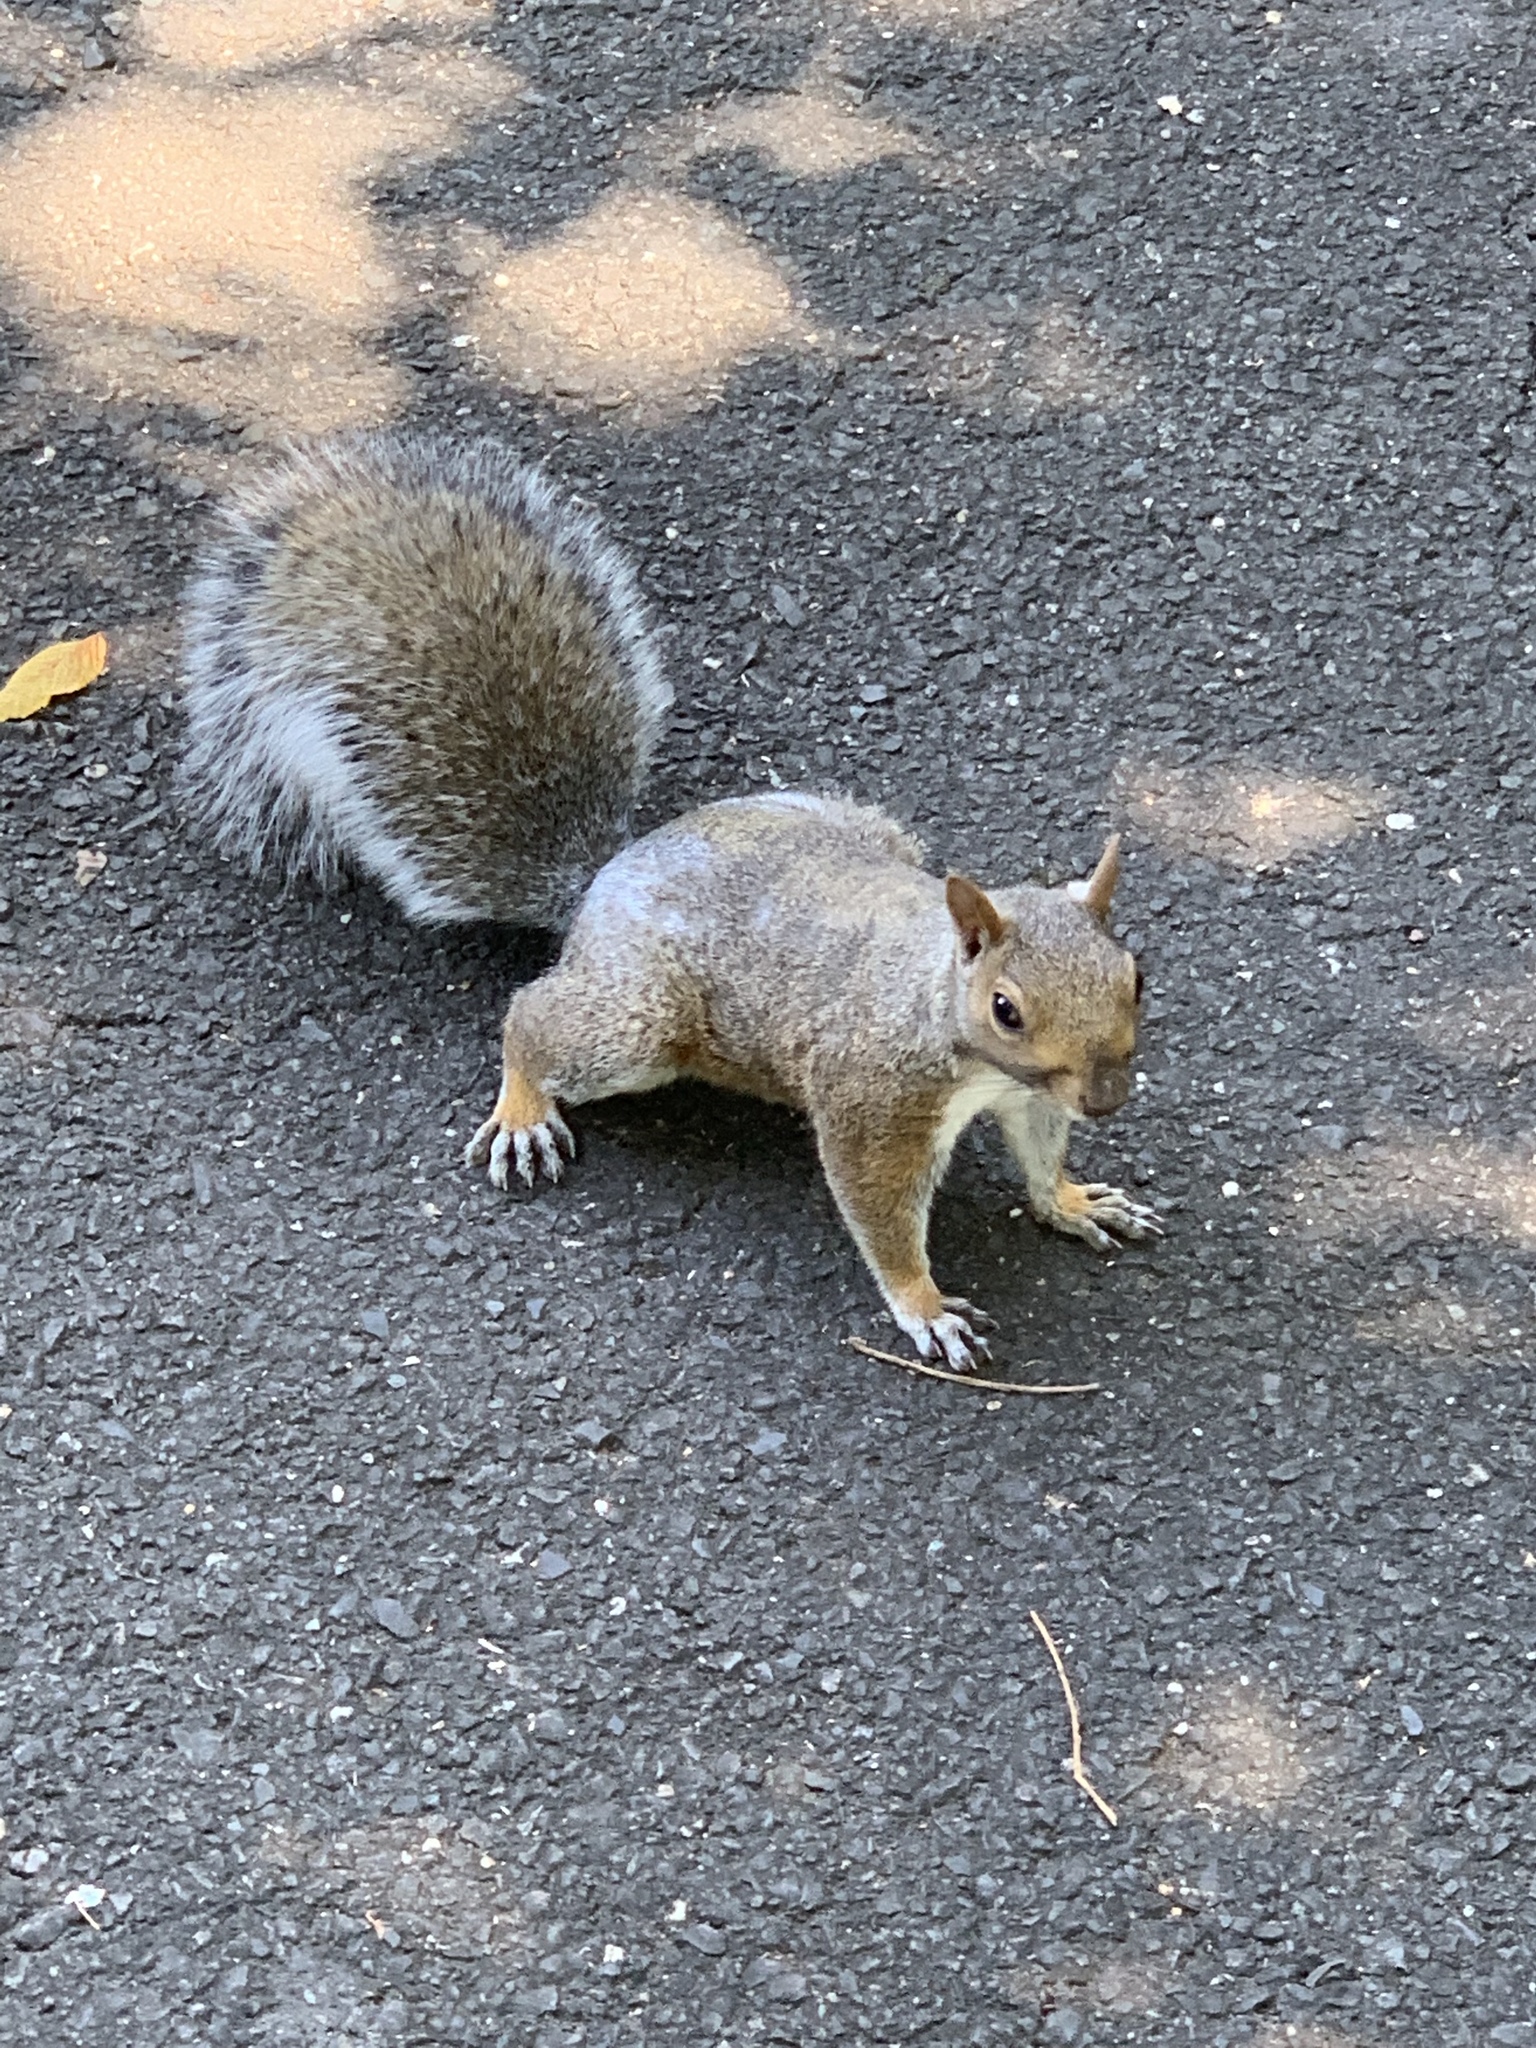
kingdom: Animalia
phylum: Chordata
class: Mammalia
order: Rodentia
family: Sciuridae
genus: Sciurus
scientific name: Sciurus carolinensis
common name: Eastern gray squirrel
